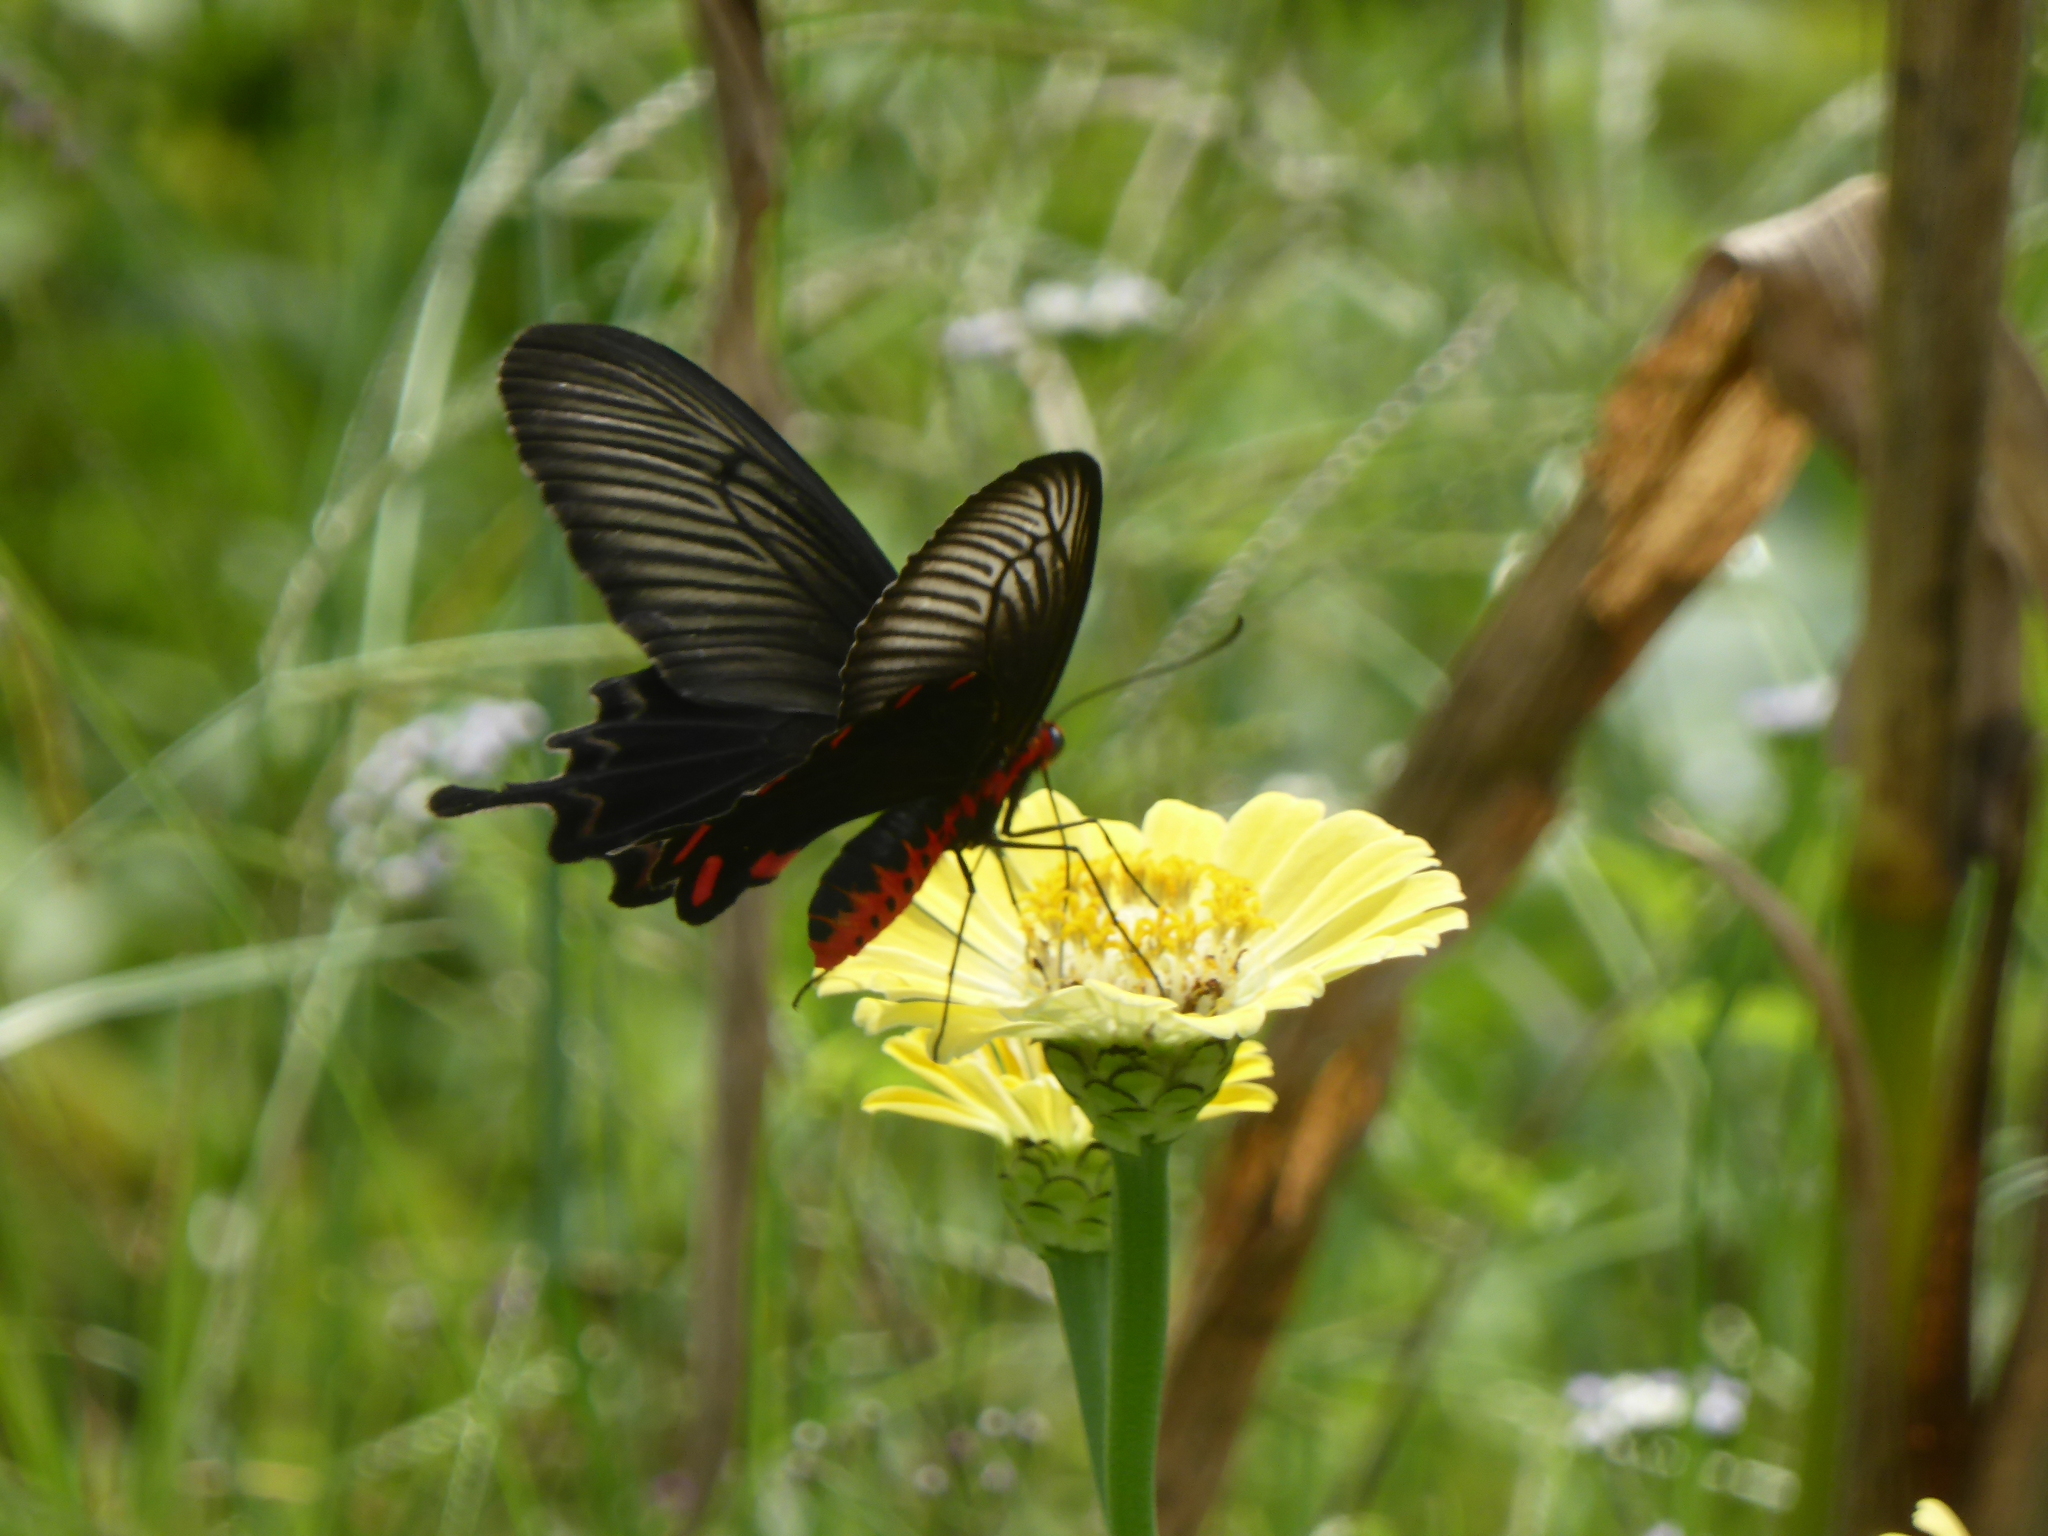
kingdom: Animalia
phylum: Arthropoda
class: Insecta
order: Lepidoptera
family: Papilionidae
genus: Pachliopta
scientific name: Pachliopta antiphus
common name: Black rose
